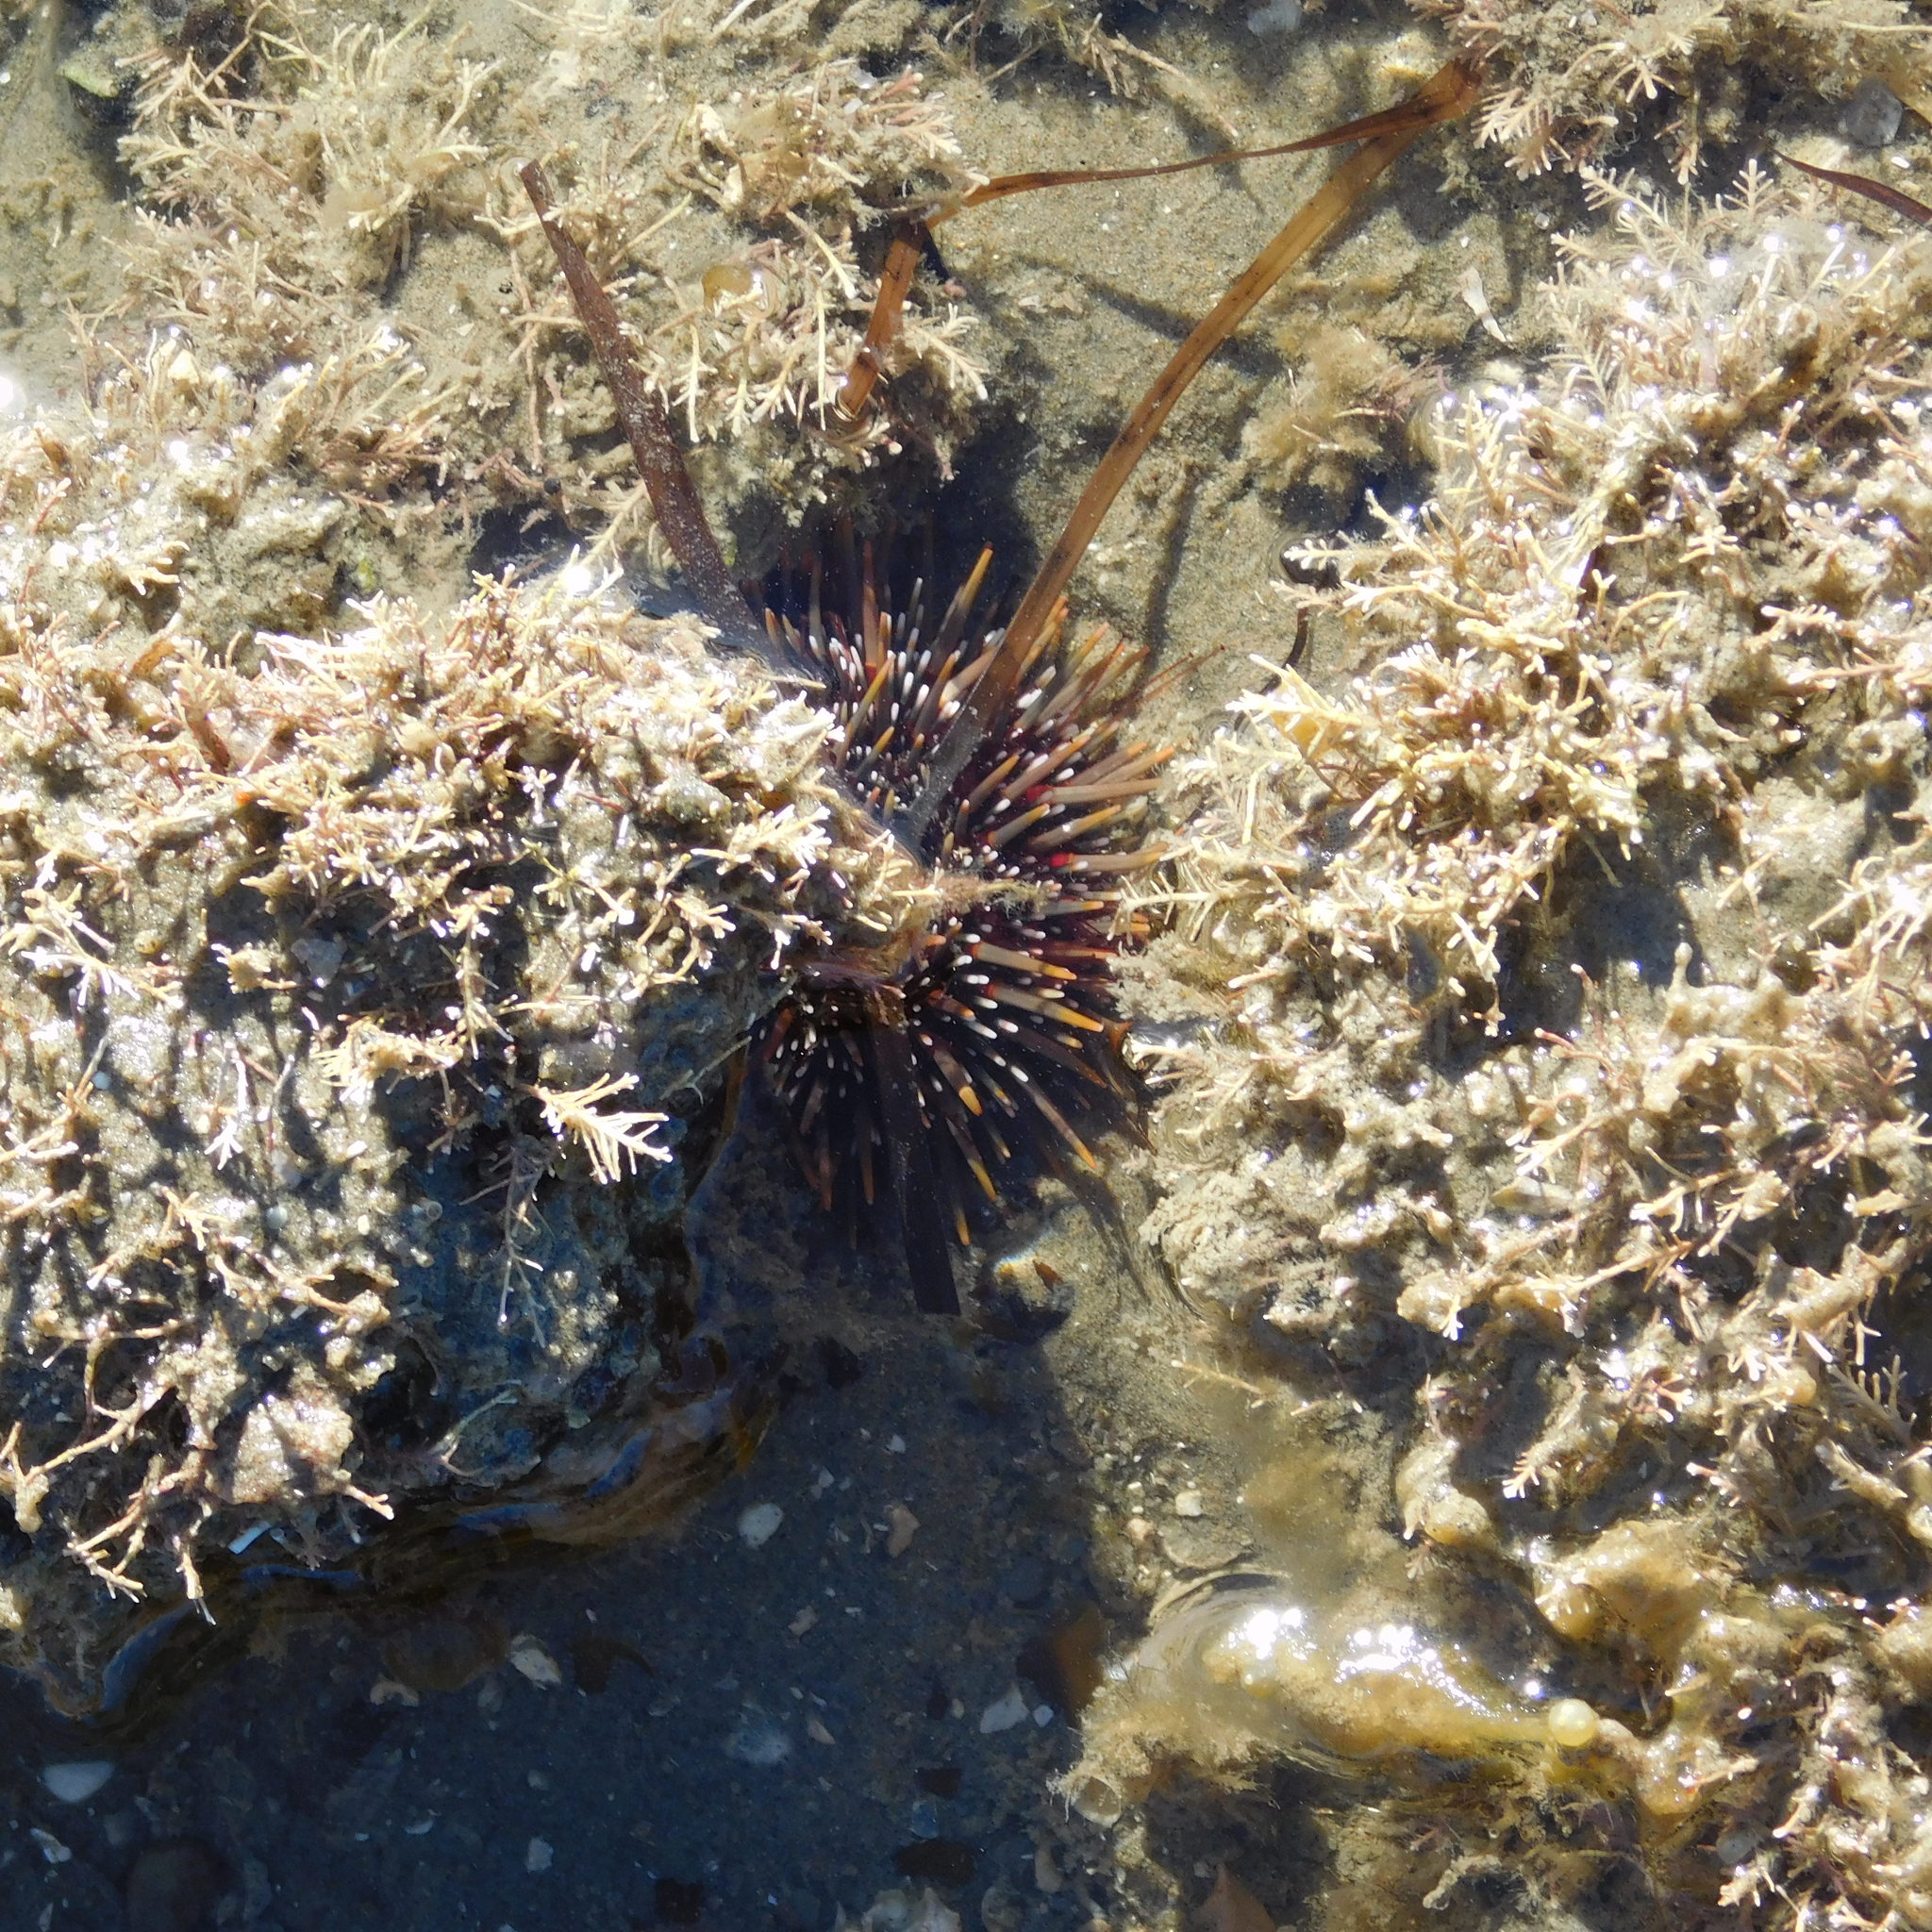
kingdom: Animalia
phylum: Echinodermata
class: Echinoidea
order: Camarodonta
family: Echinometridae
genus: Evechinus
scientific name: Evechinus chloroticus
